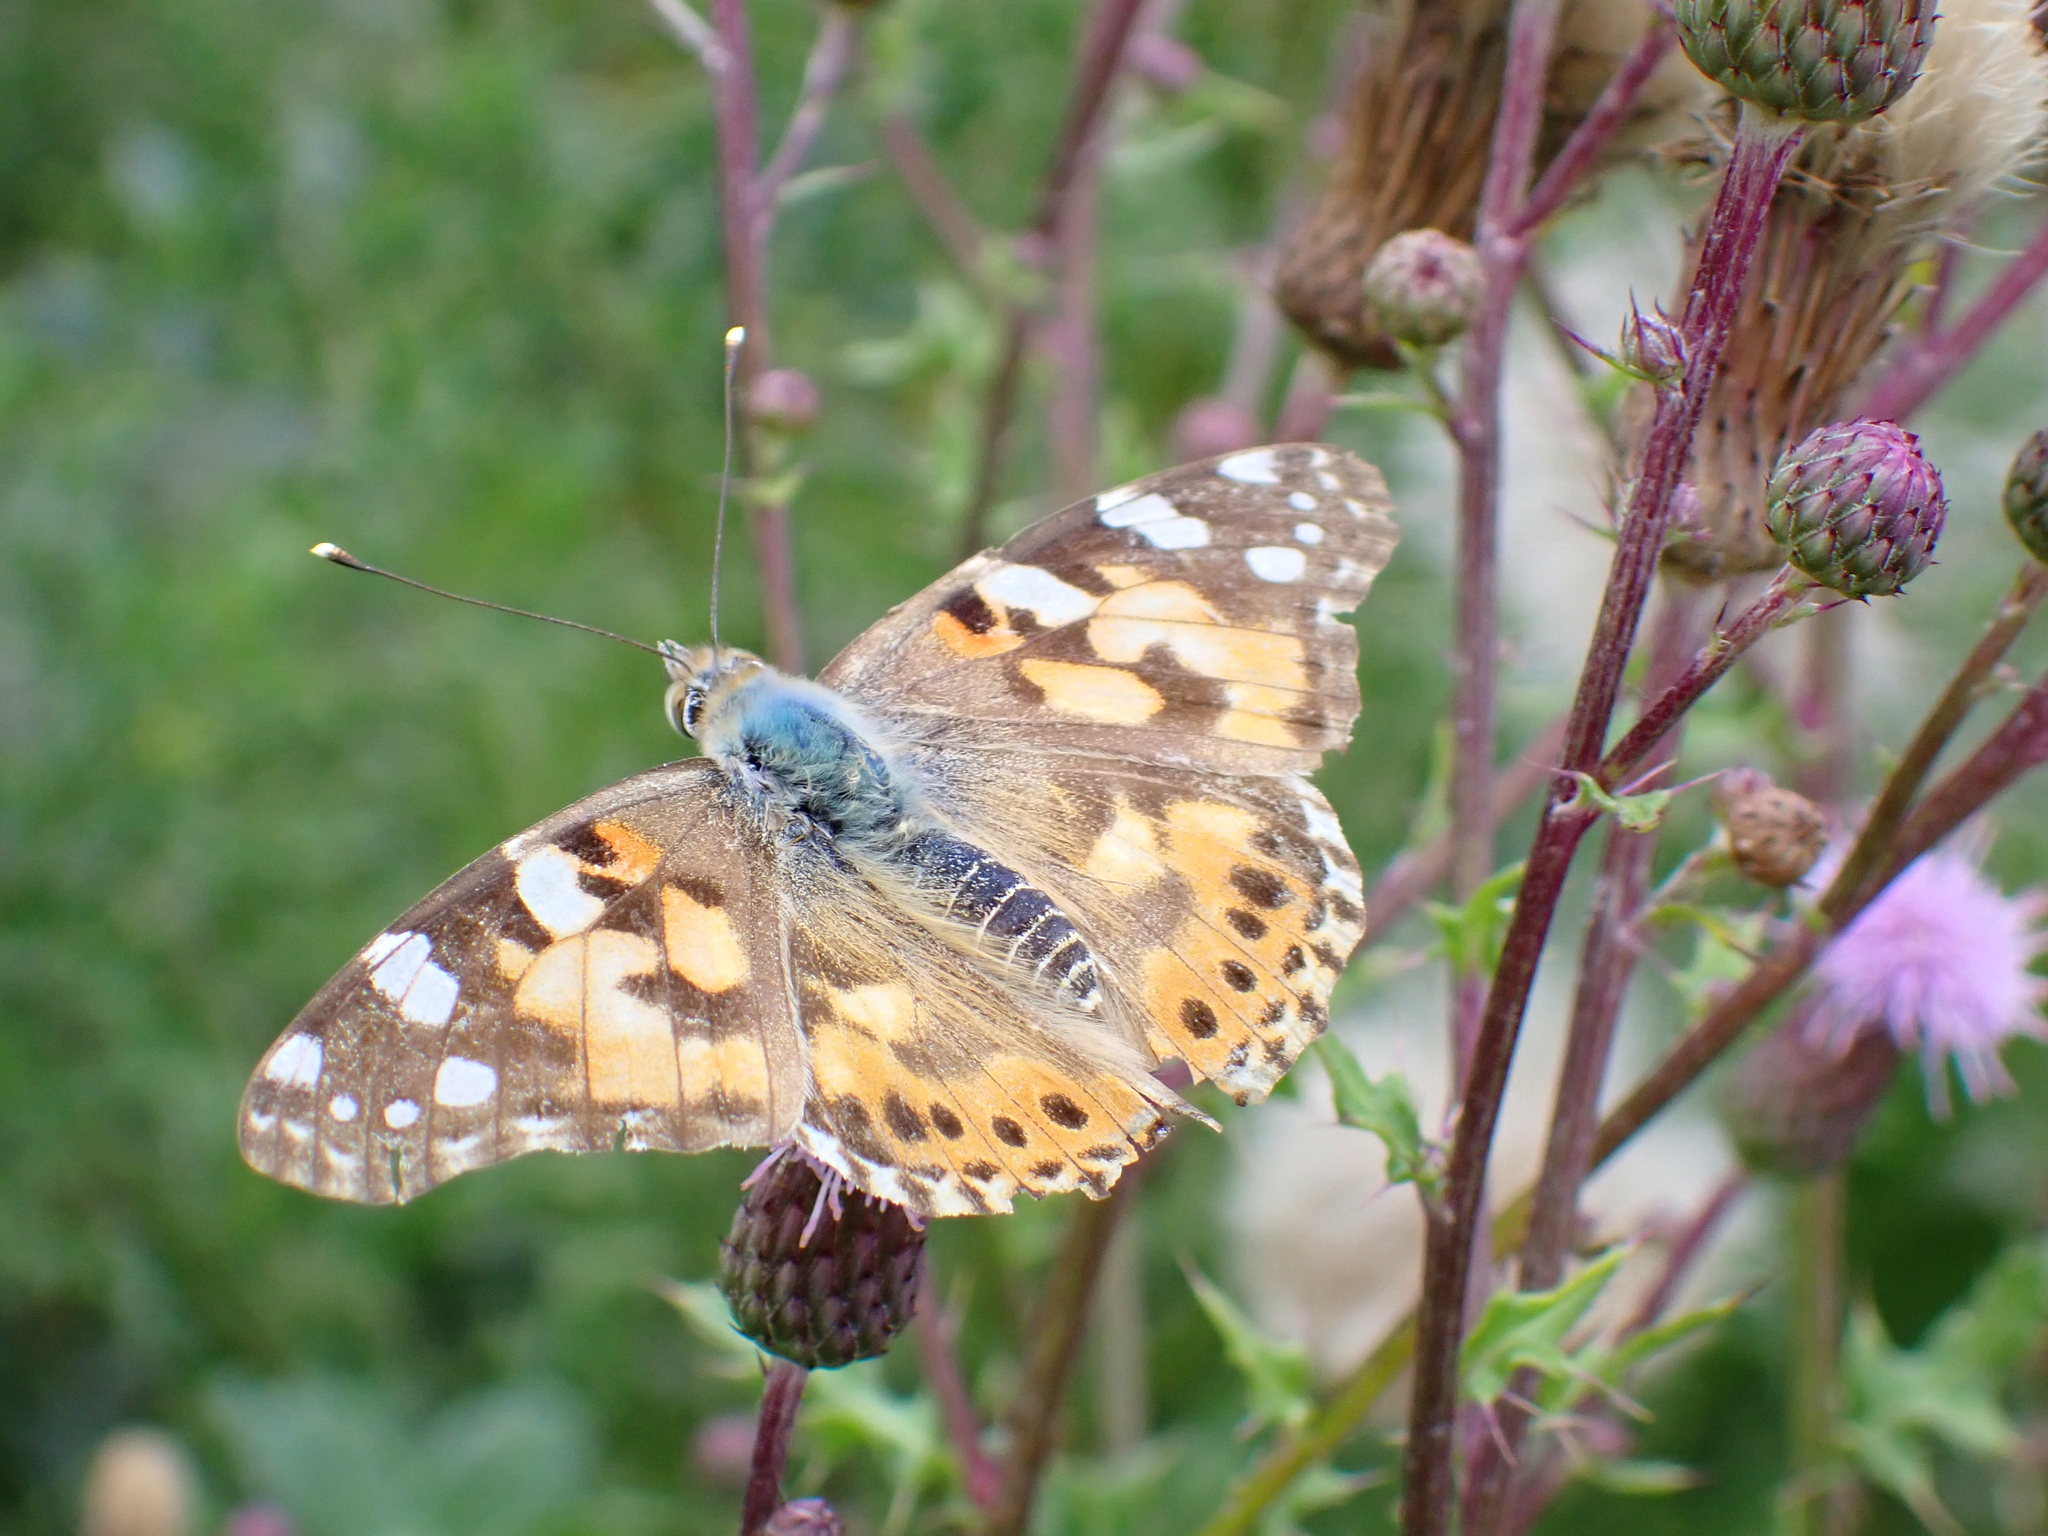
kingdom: Animalia
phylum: Arthropoda
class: Insecta
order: Lepidoptera
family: Nymphalidae
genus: Vanessa
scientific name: Vanessa cardui
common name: Painted lady
